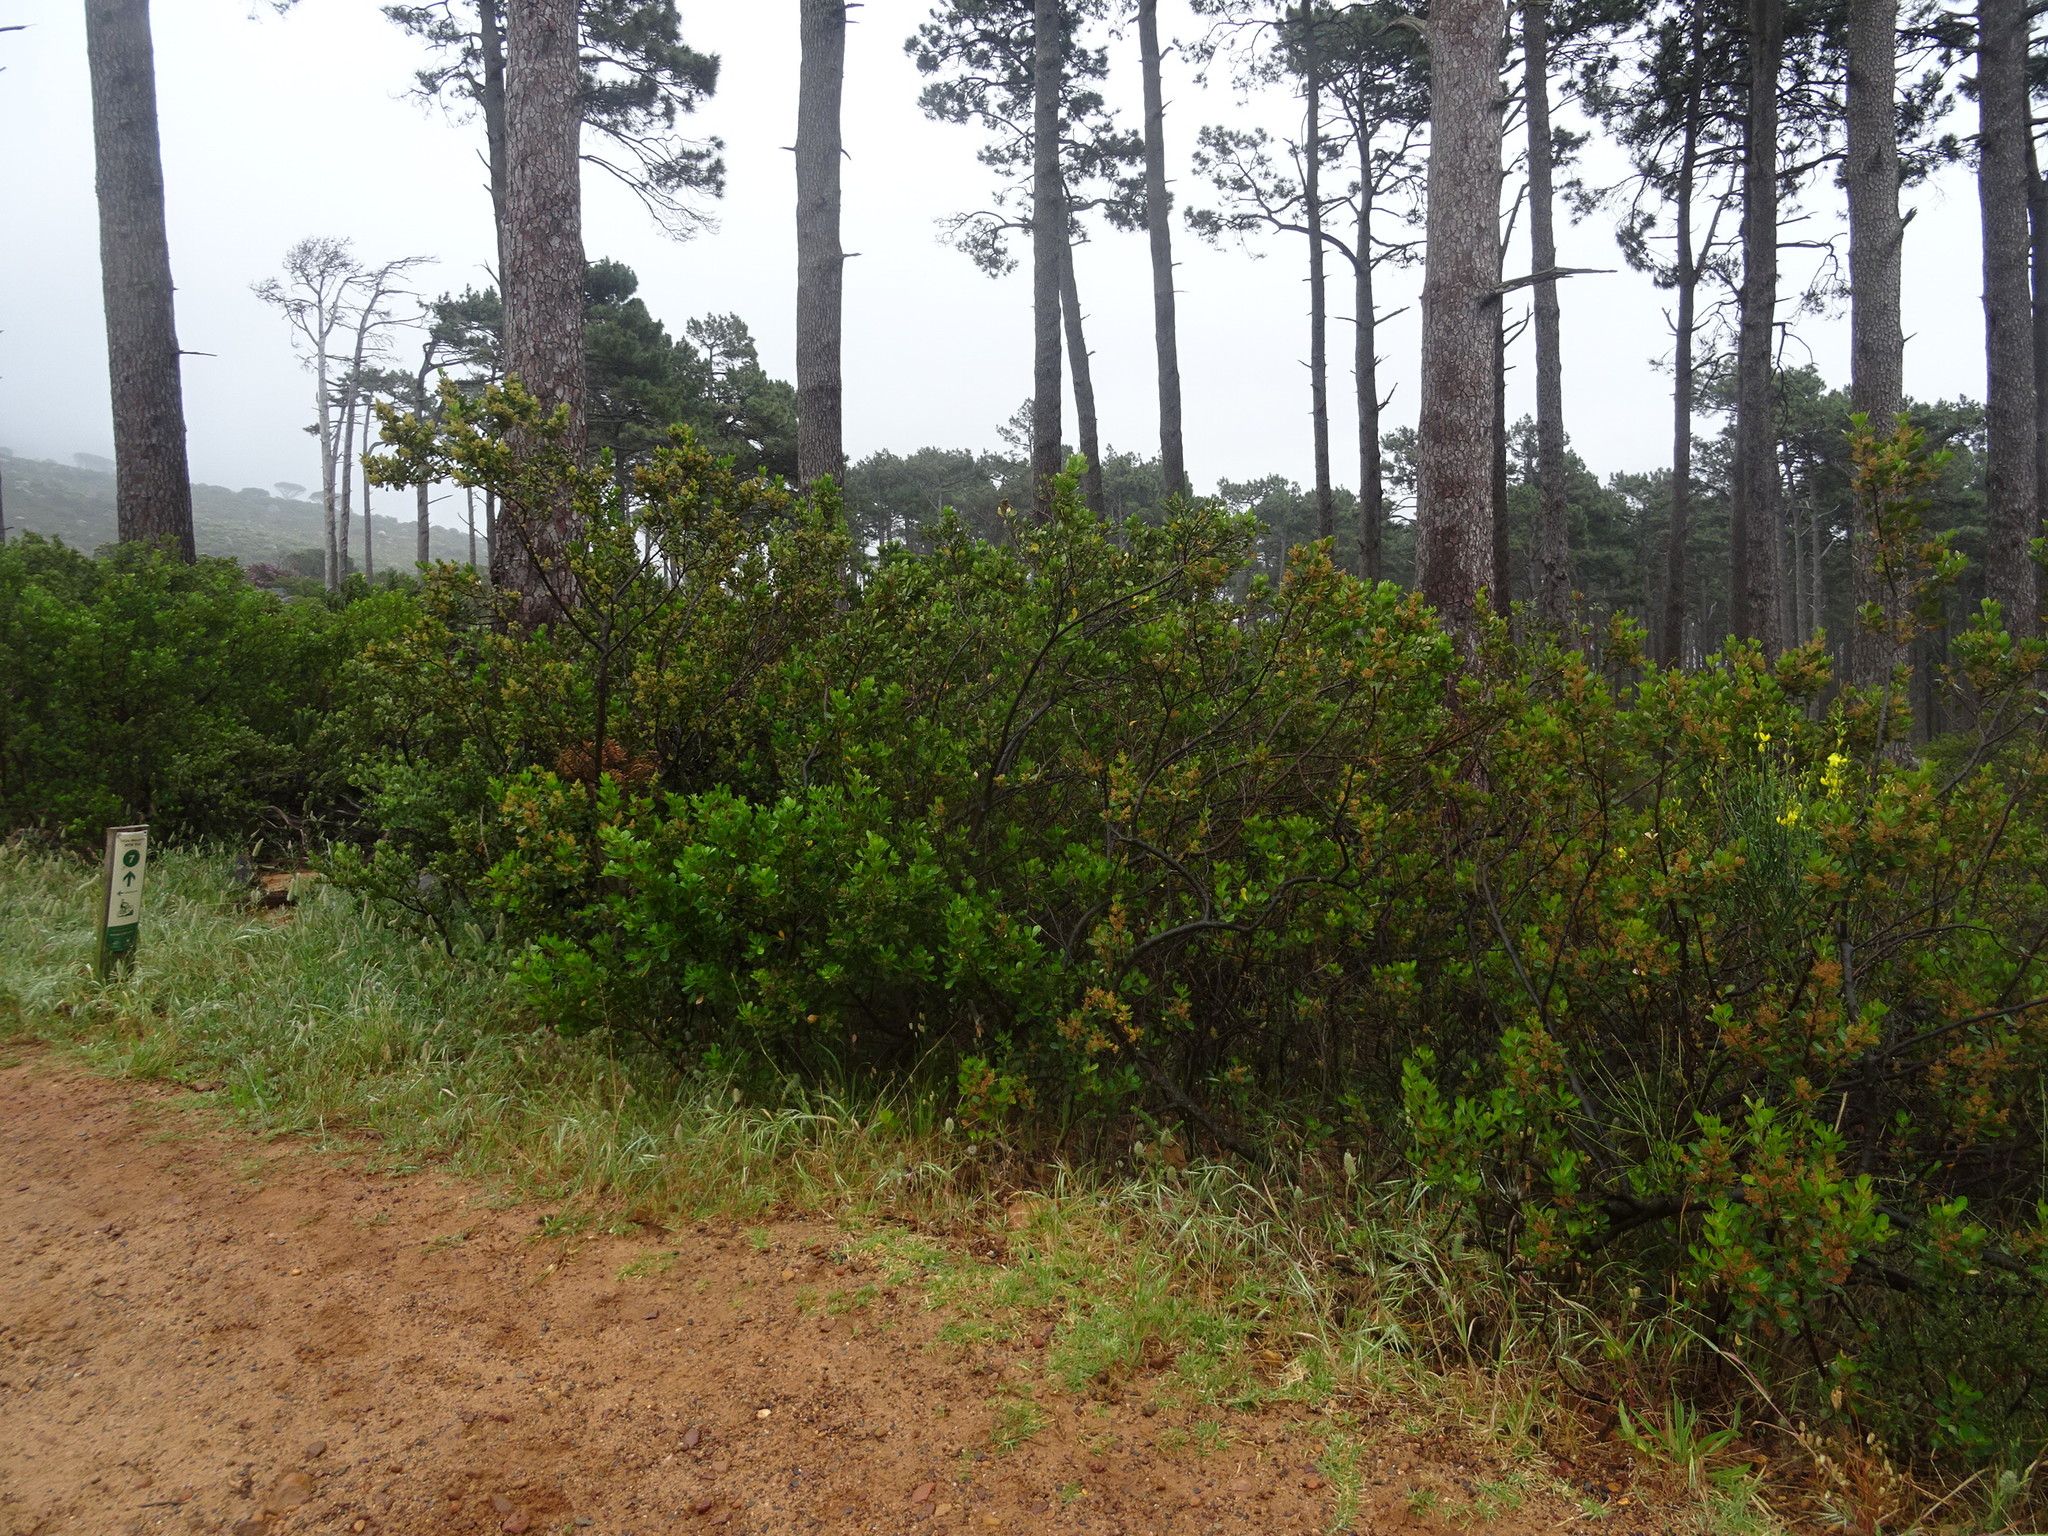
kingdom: Plantae
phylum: Tracheophyta
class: Magnoliopsida
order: Fabales
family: Fabaceae
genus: Spartium
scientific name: Spartium junceum
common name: Spanish broom
